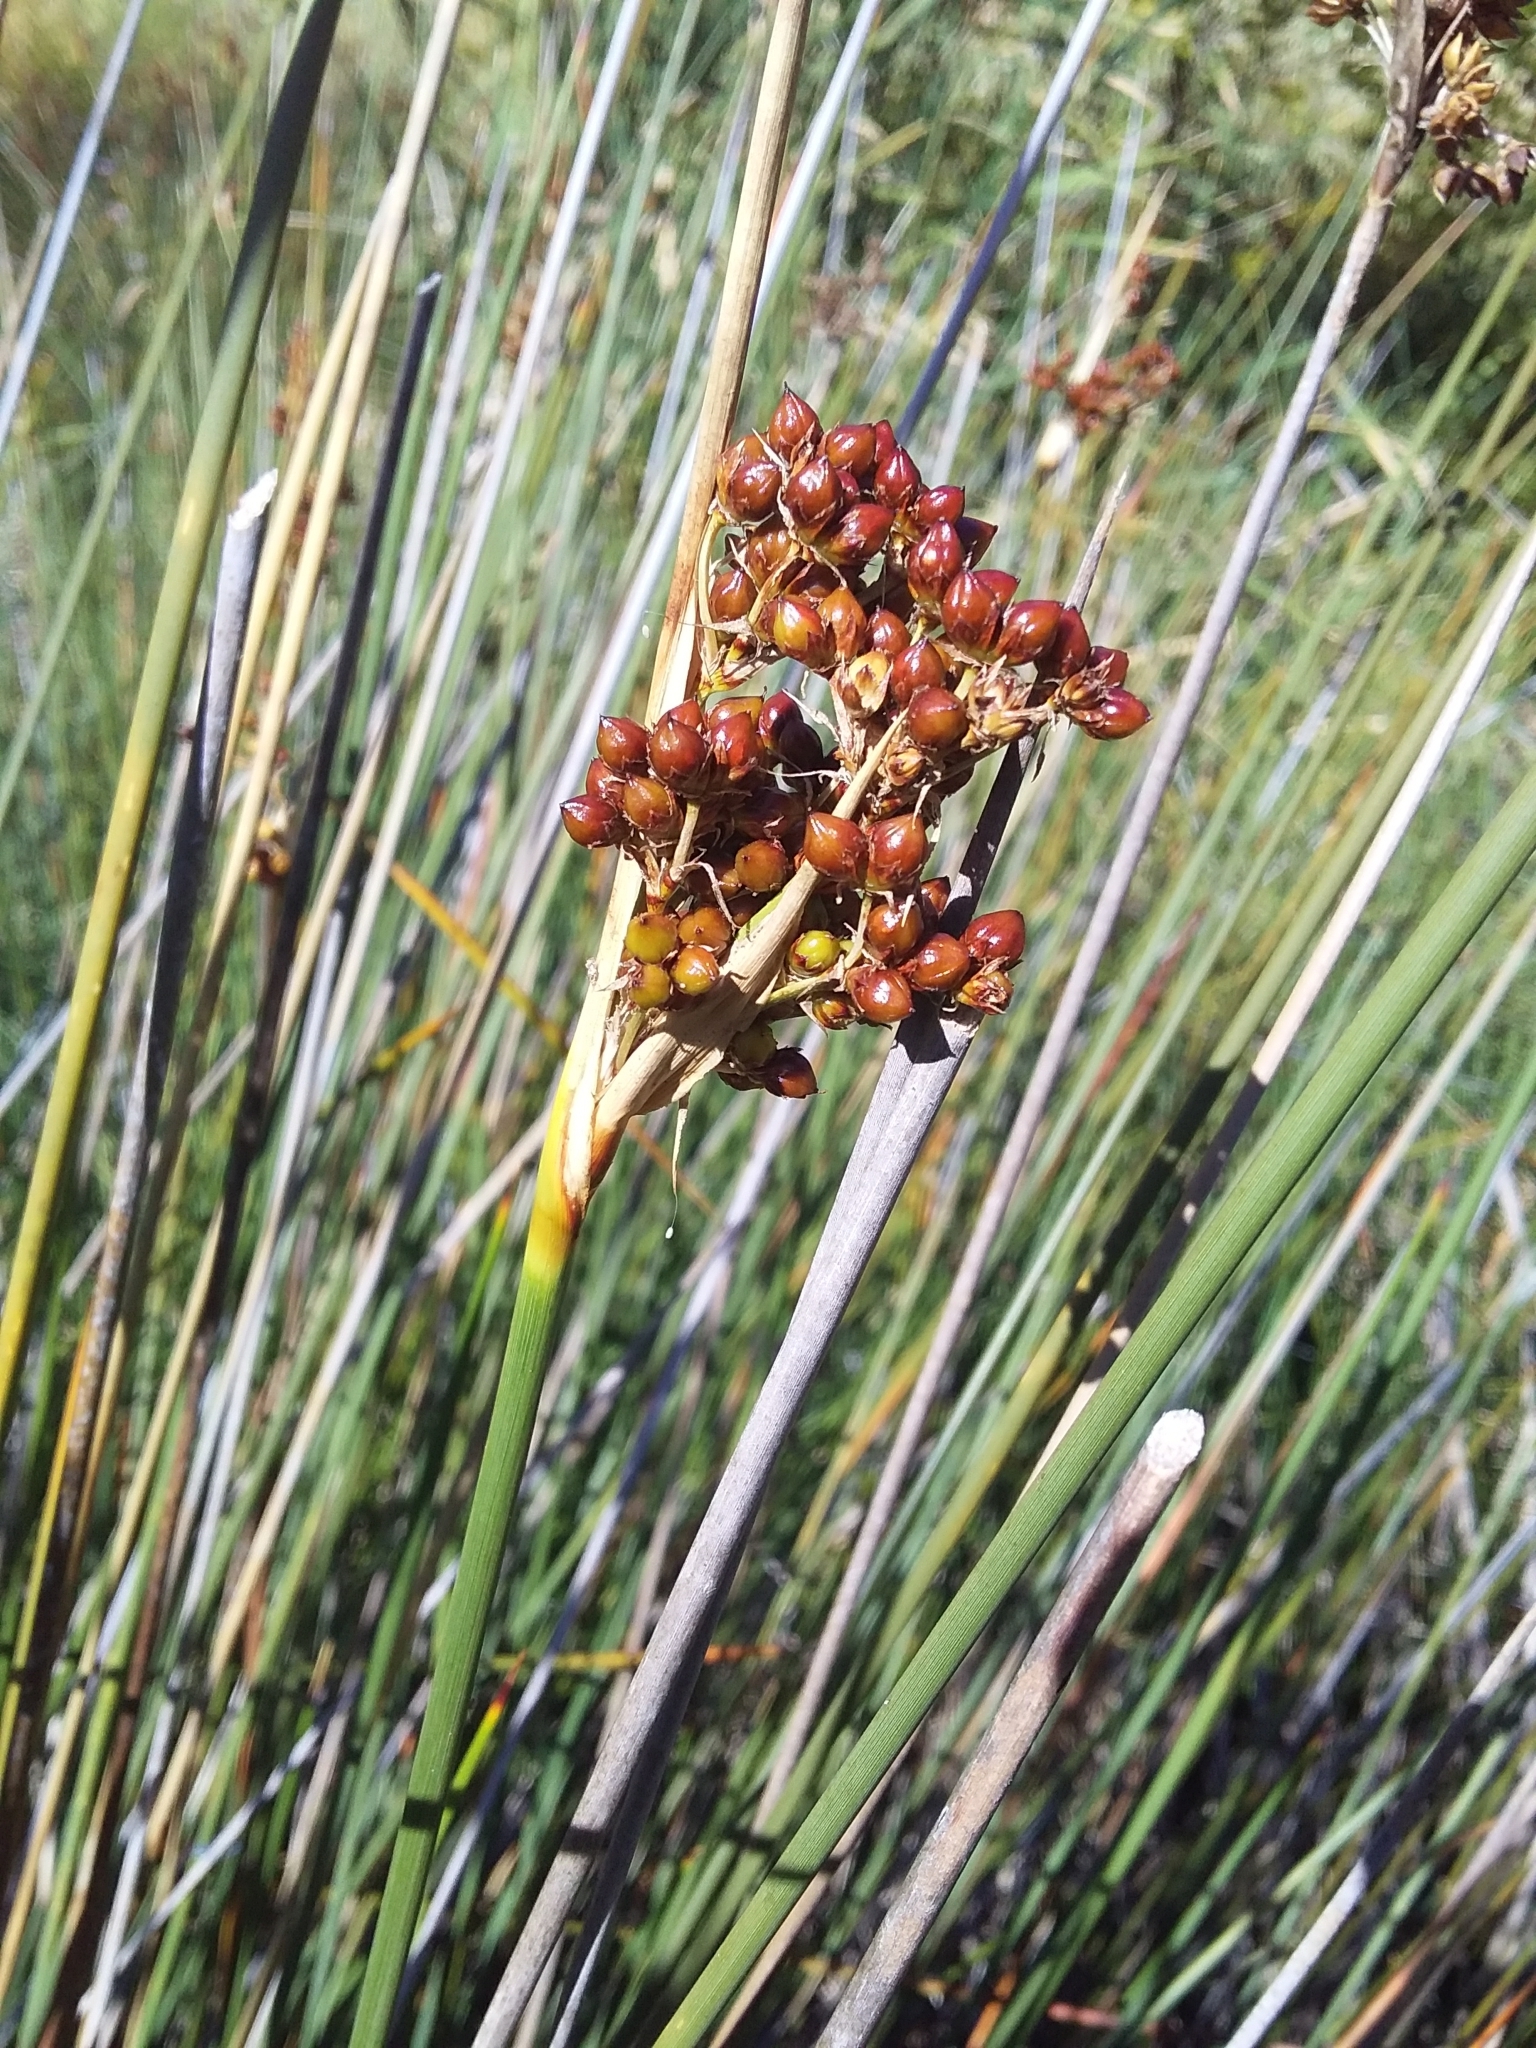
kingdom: Plantae
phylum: Tracheophyta
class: Liliopsida
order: Poales
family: Juncaceae
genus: Juncus
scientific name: Juncus acutus
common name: Sharp rush
